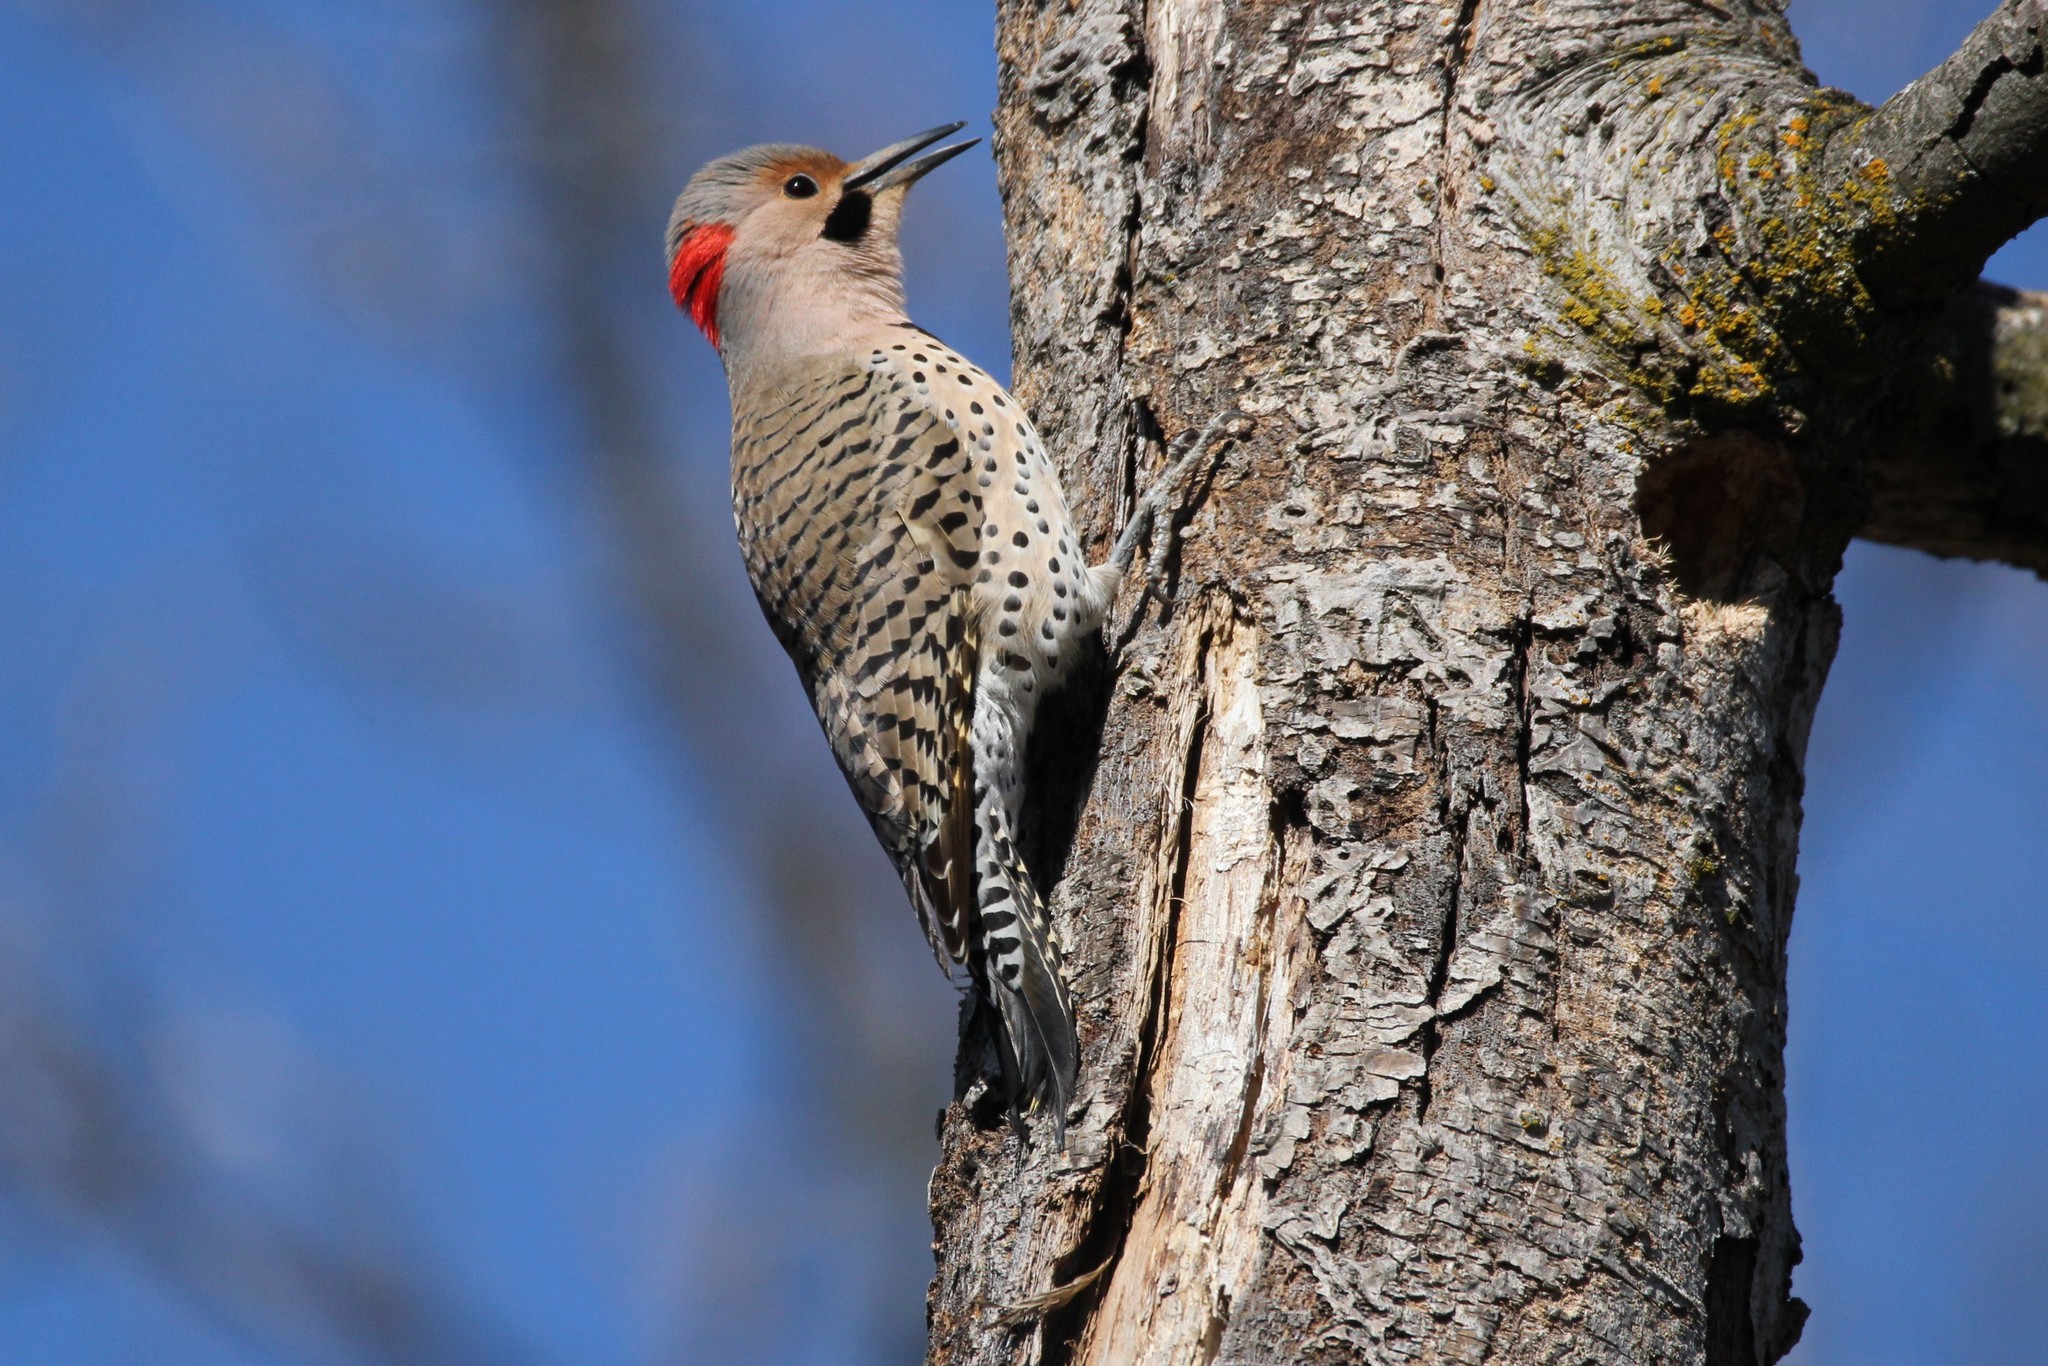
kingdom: Animalia
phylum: Chordata
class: Aves
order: Piciformes
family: Picidae
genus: Colaptes
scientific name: Colaptes auratus
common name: Northern flicker
